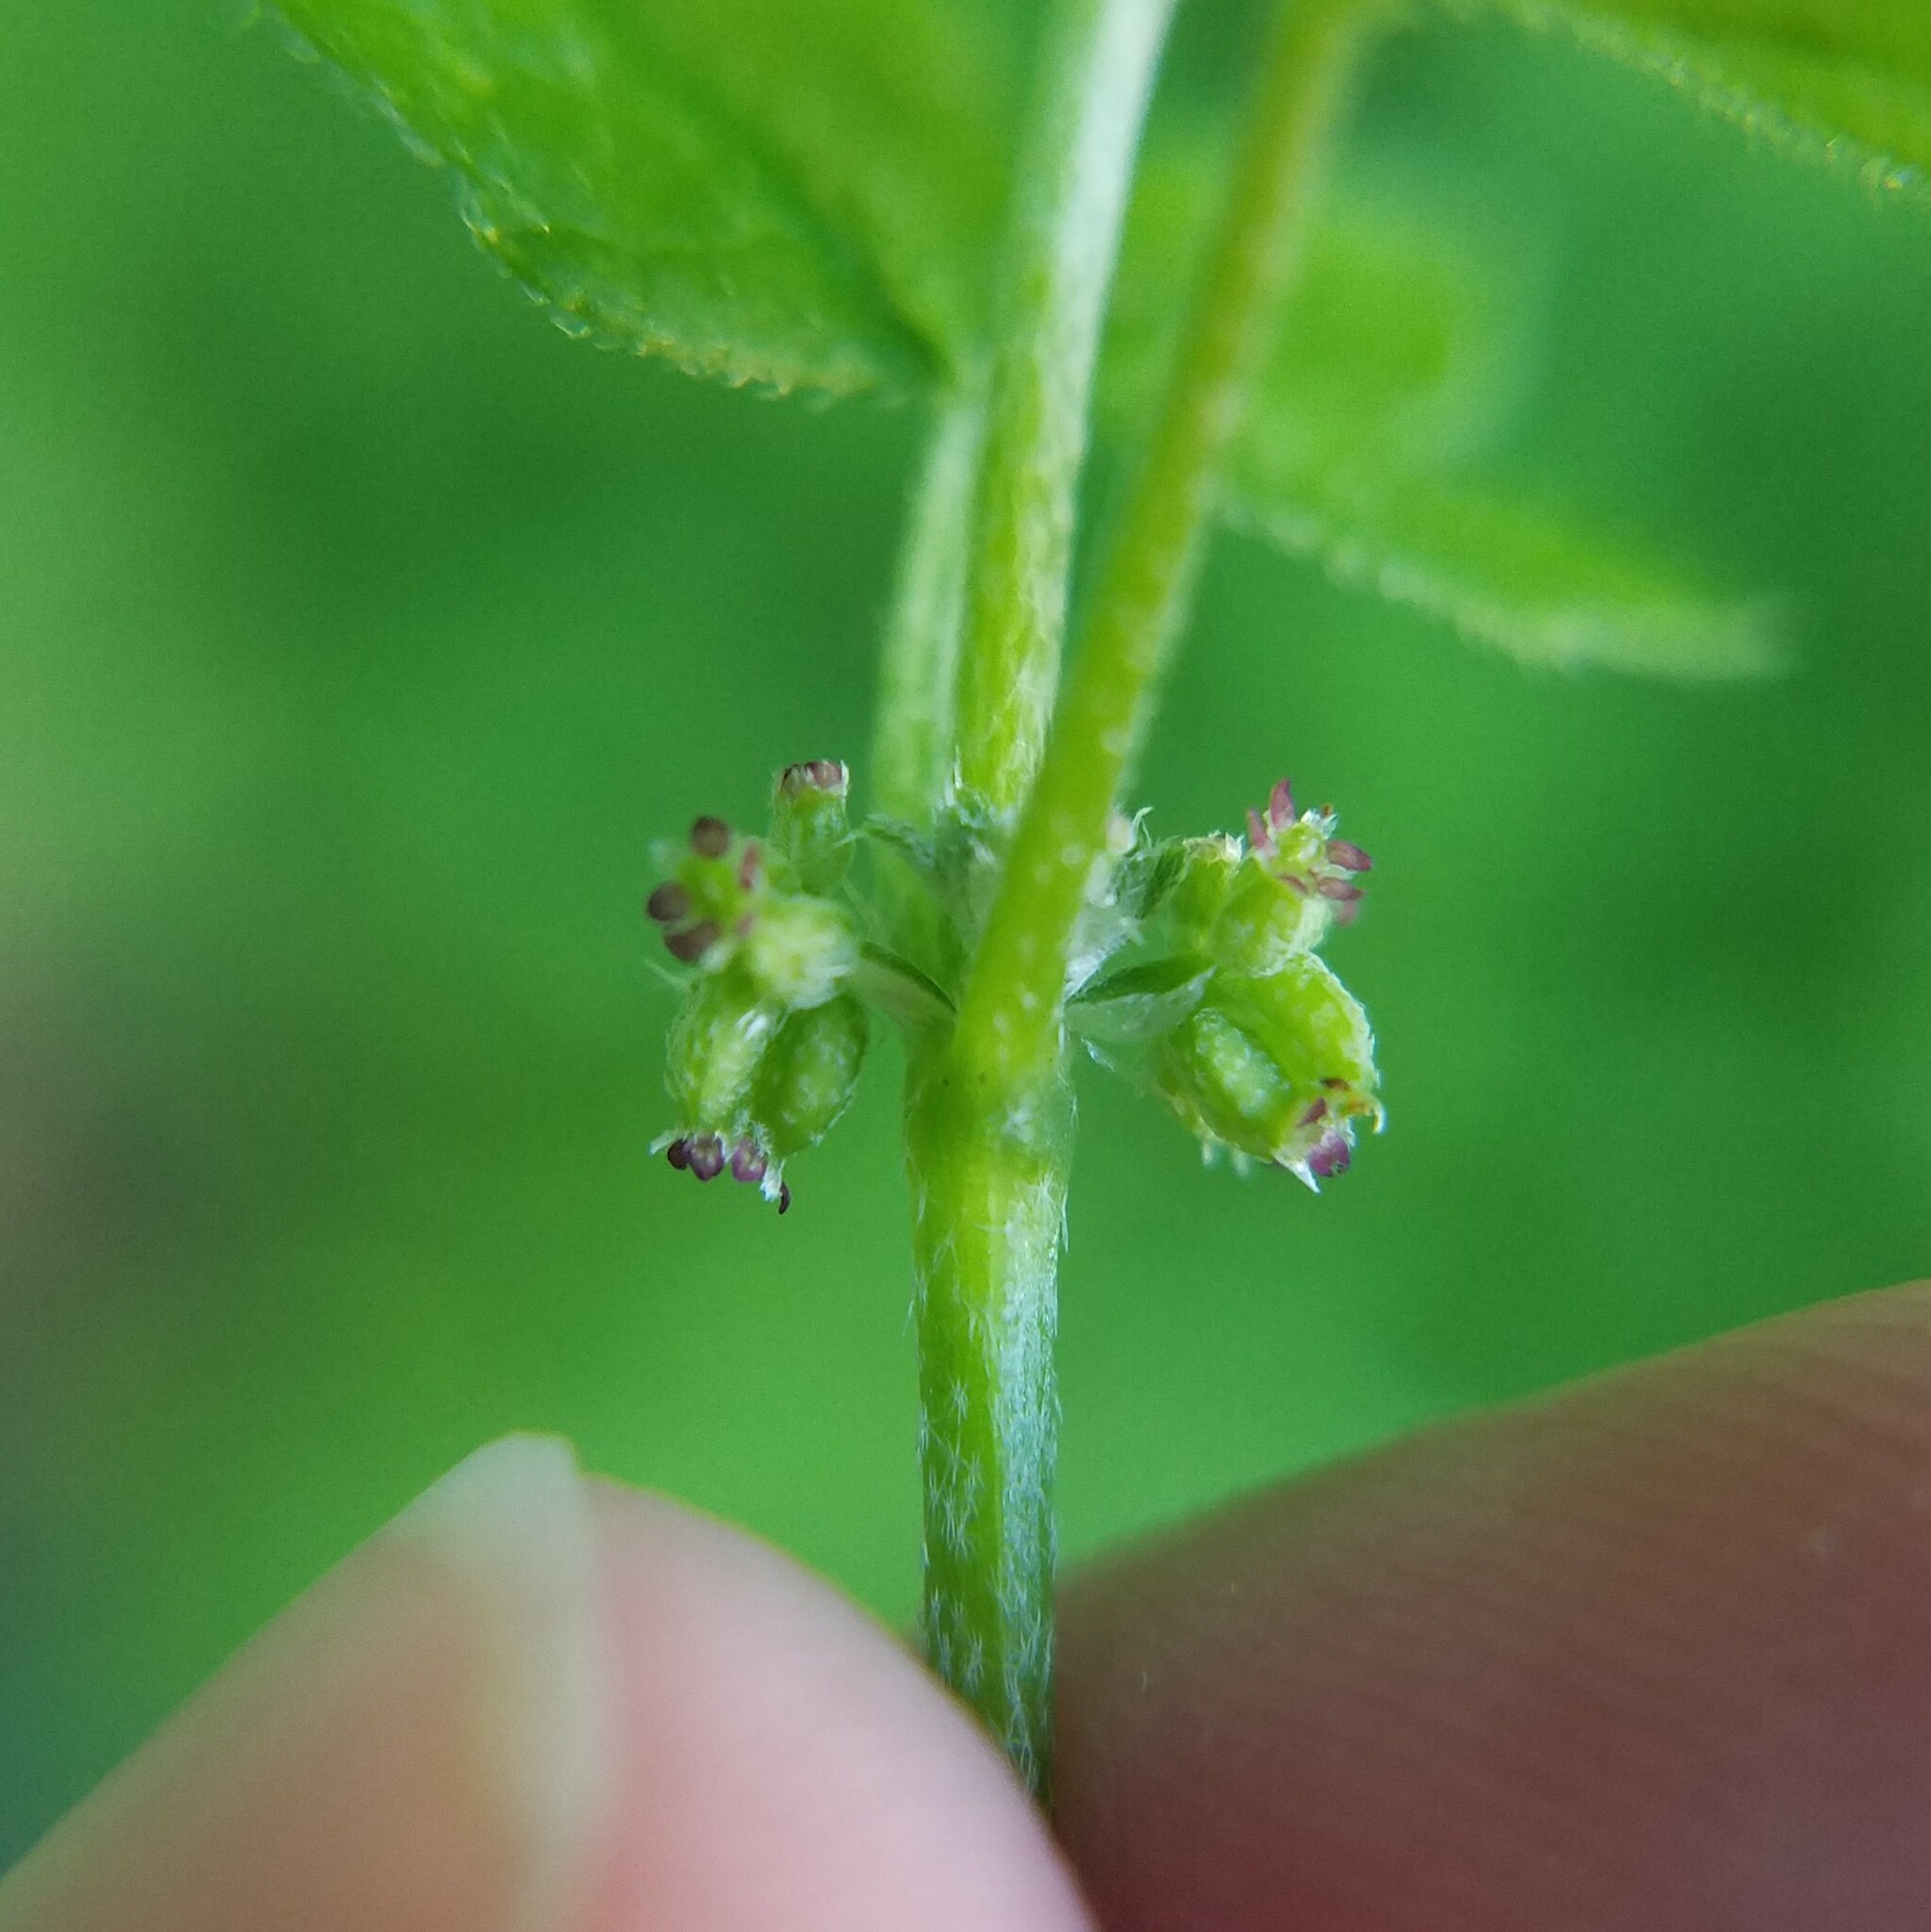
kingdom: Plantae
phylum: Tracheophyta
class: Magnoliopsida
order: Apiales
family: Apiaceae
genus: Bowlesia
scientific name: Bowlesia incana
